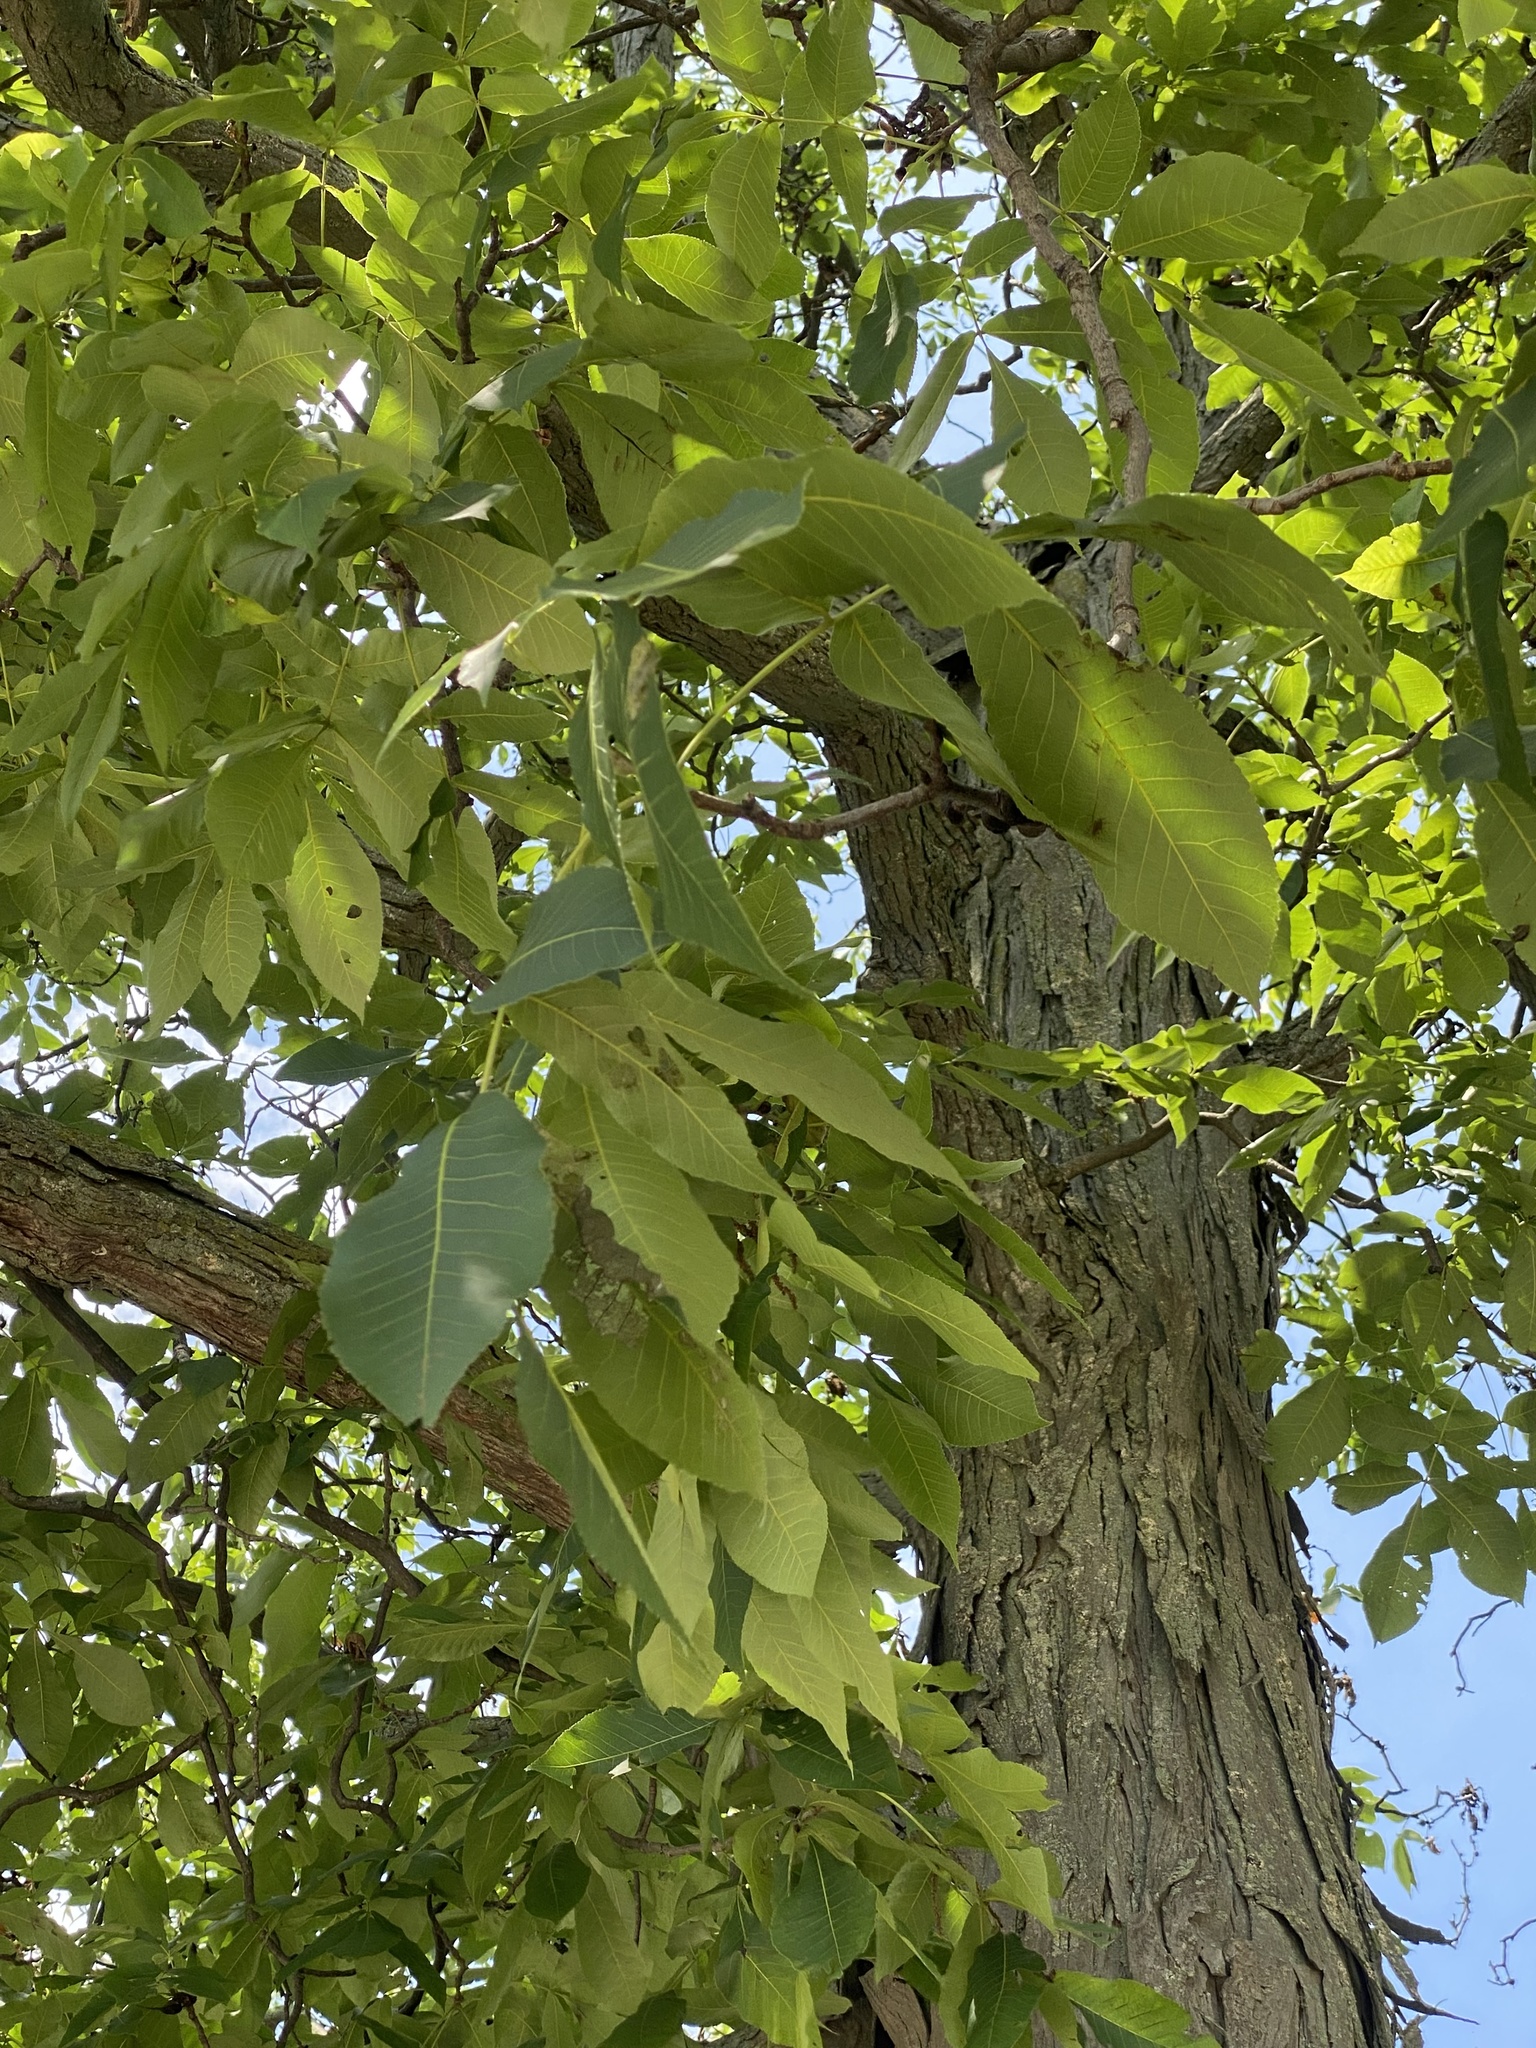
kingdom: Plantae
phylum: Tracheophyta
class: Magnoliopsida
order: Fagales
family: Juglandaceae
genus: Carya
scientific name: Carya ovata
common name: Shagbark hickory
